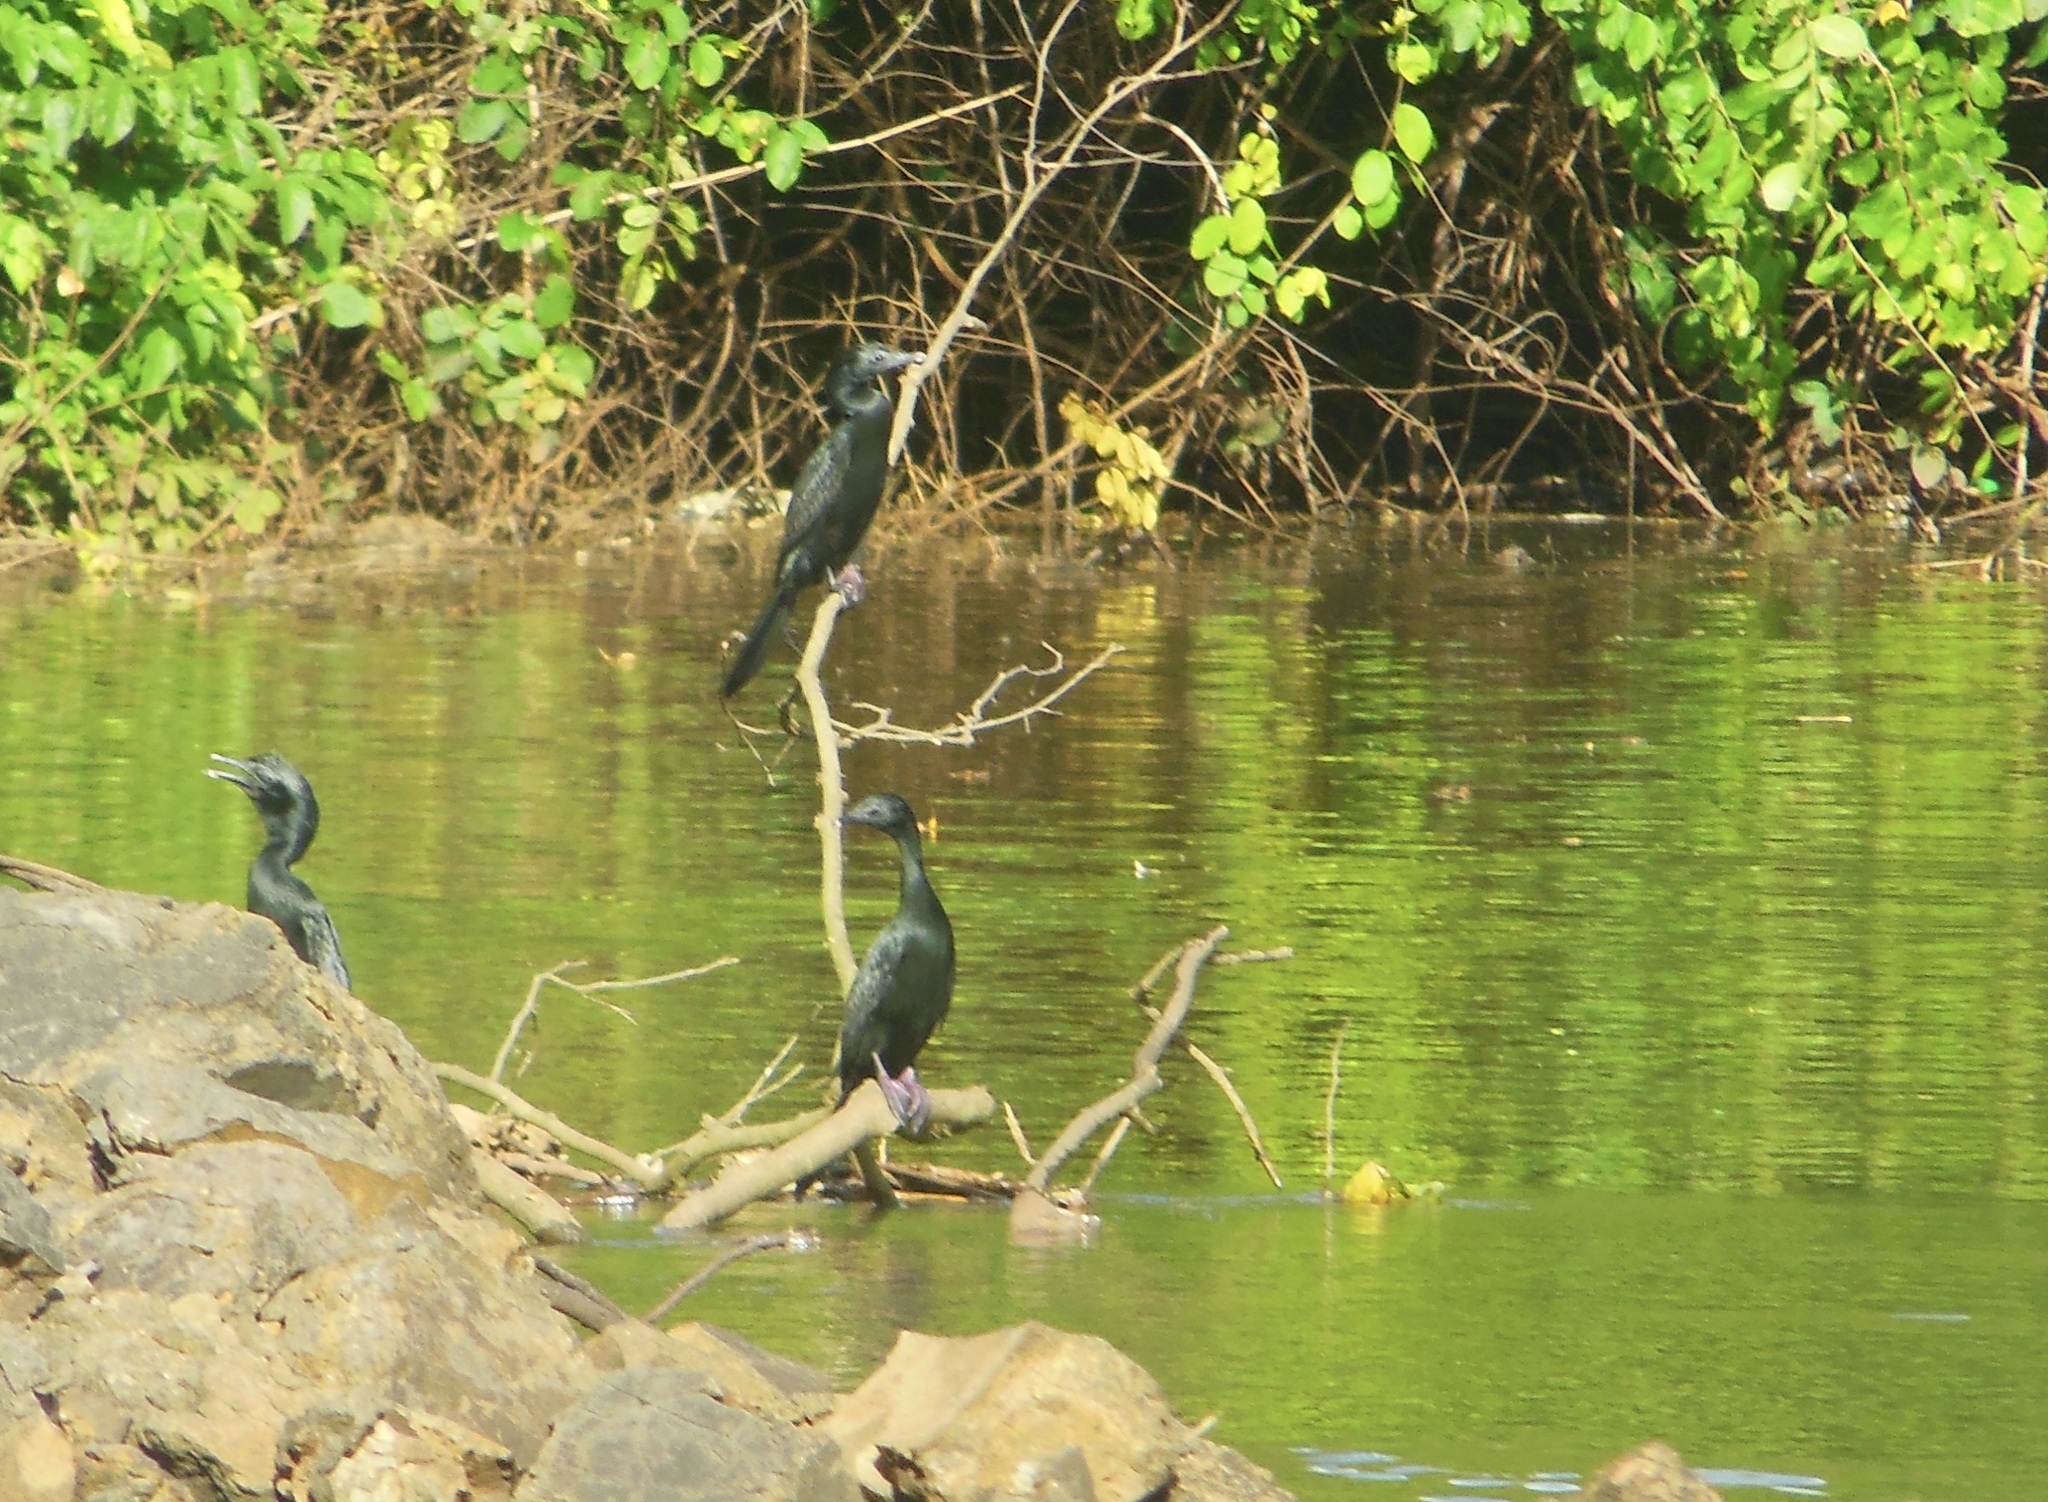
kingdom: Animalia
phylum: Chordata
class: Aves
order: Suliformes
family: Phalacrocoracidae
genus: Microcarbo
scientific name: Microcarbo niger
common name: Little cormorant
